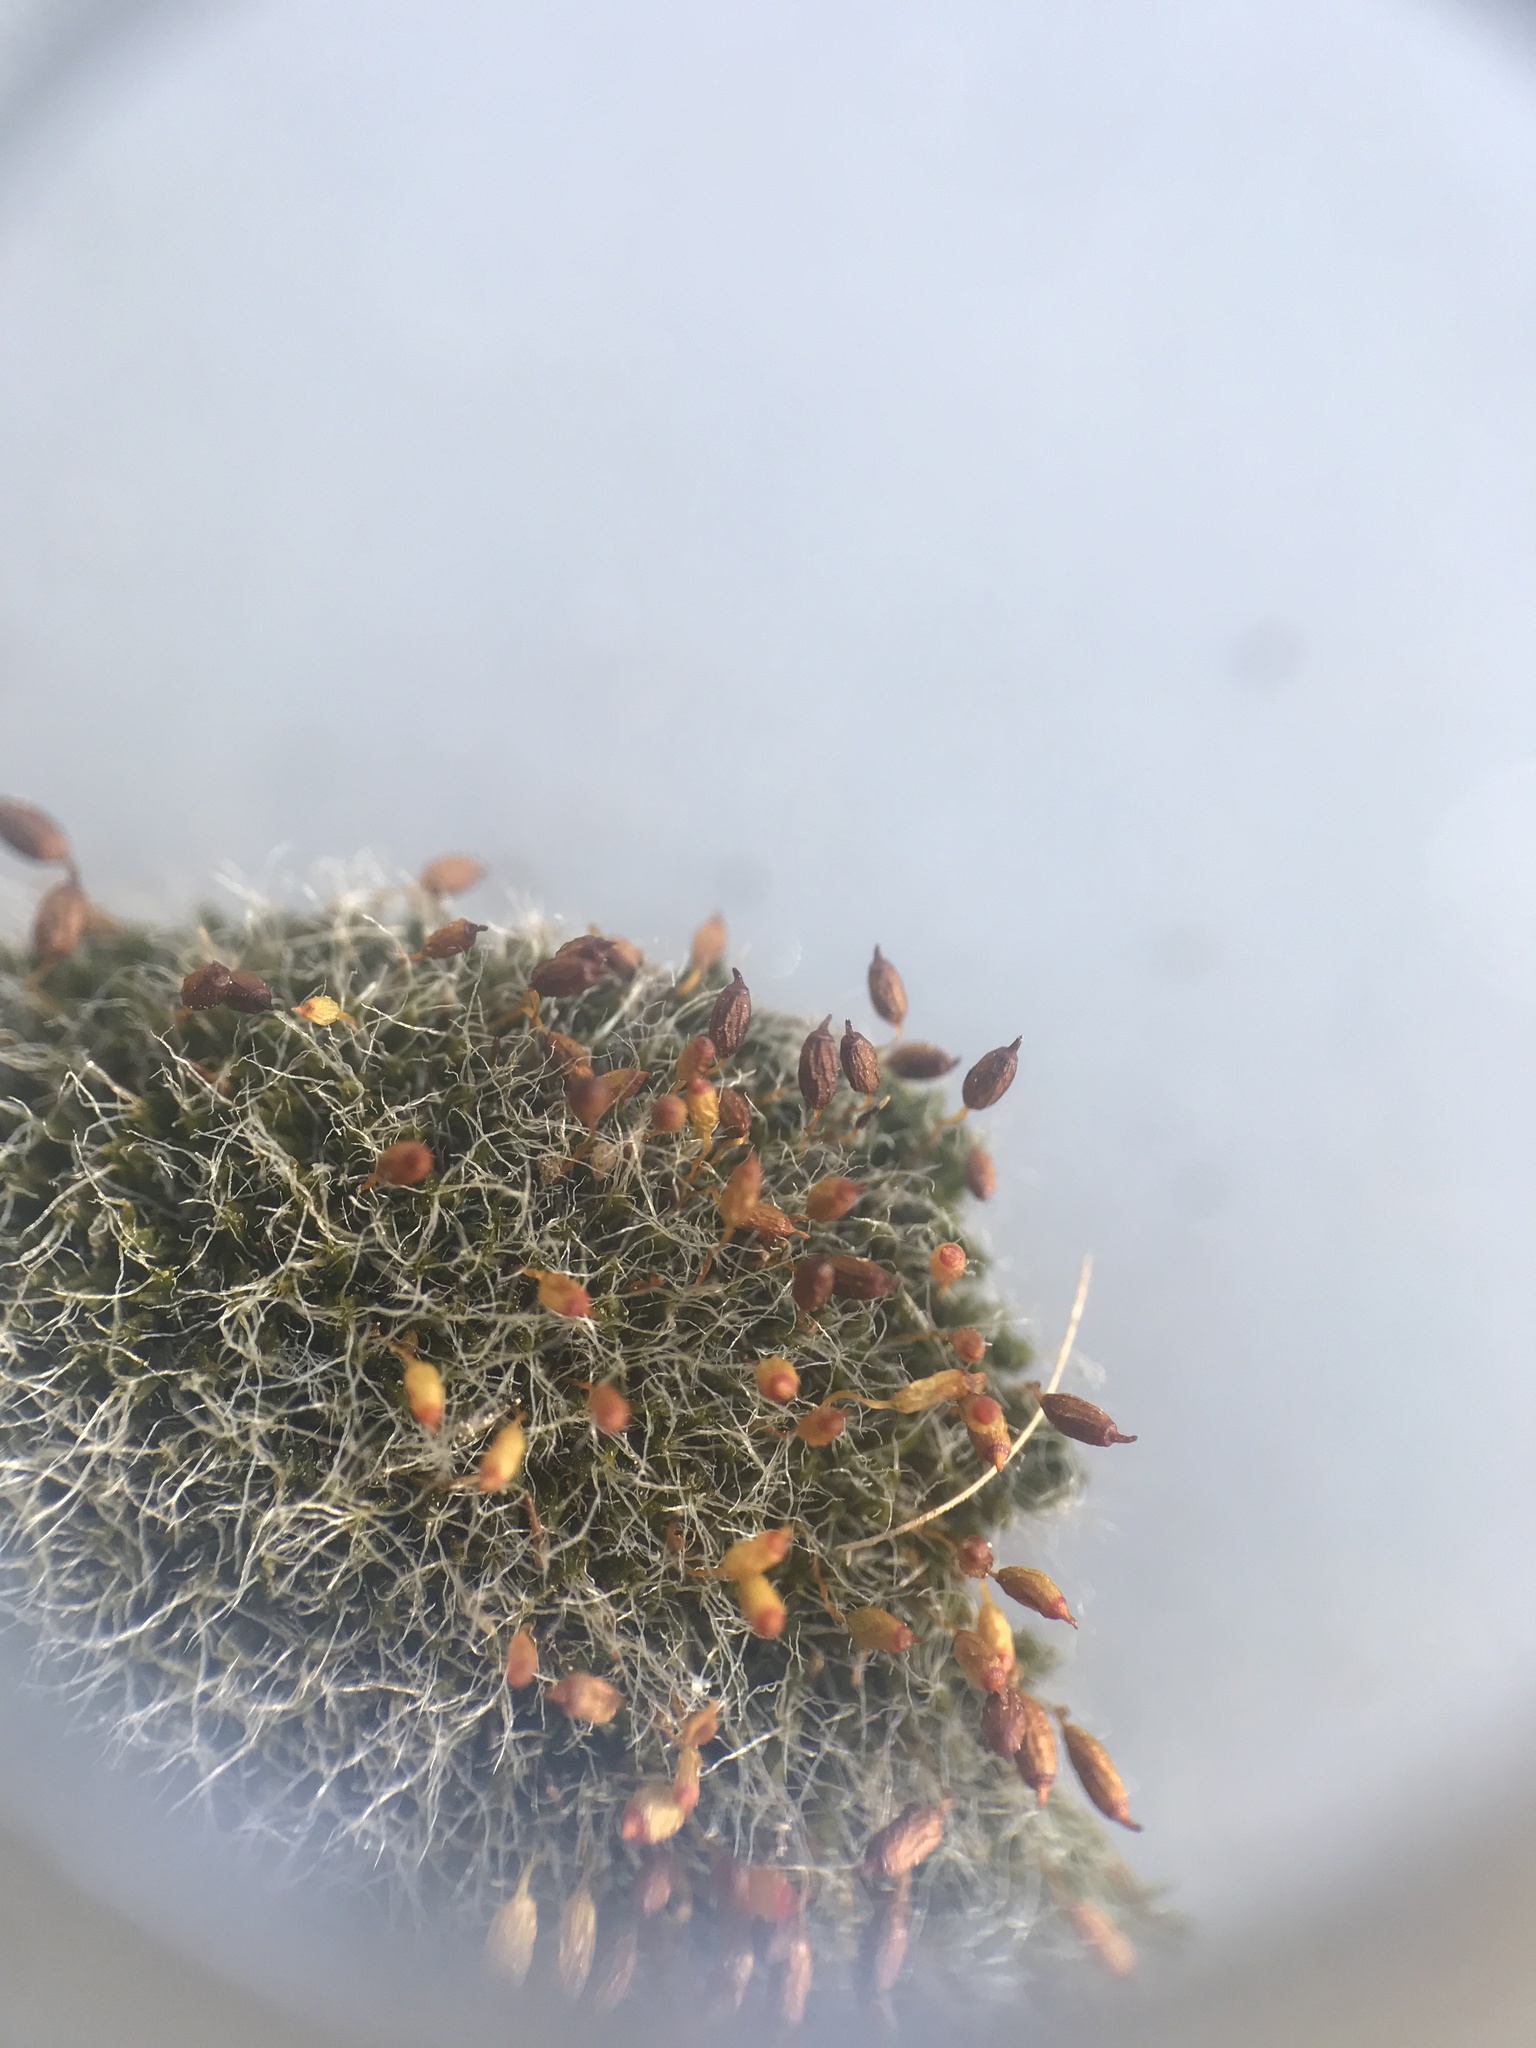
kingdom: Plantae
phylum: Bryophyta
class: Bryopsida
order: Grimmiales
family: Grimmiaceae
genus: Grimmia
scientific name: Grimmia pulvinata
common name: Grey-cushioned grimmia
